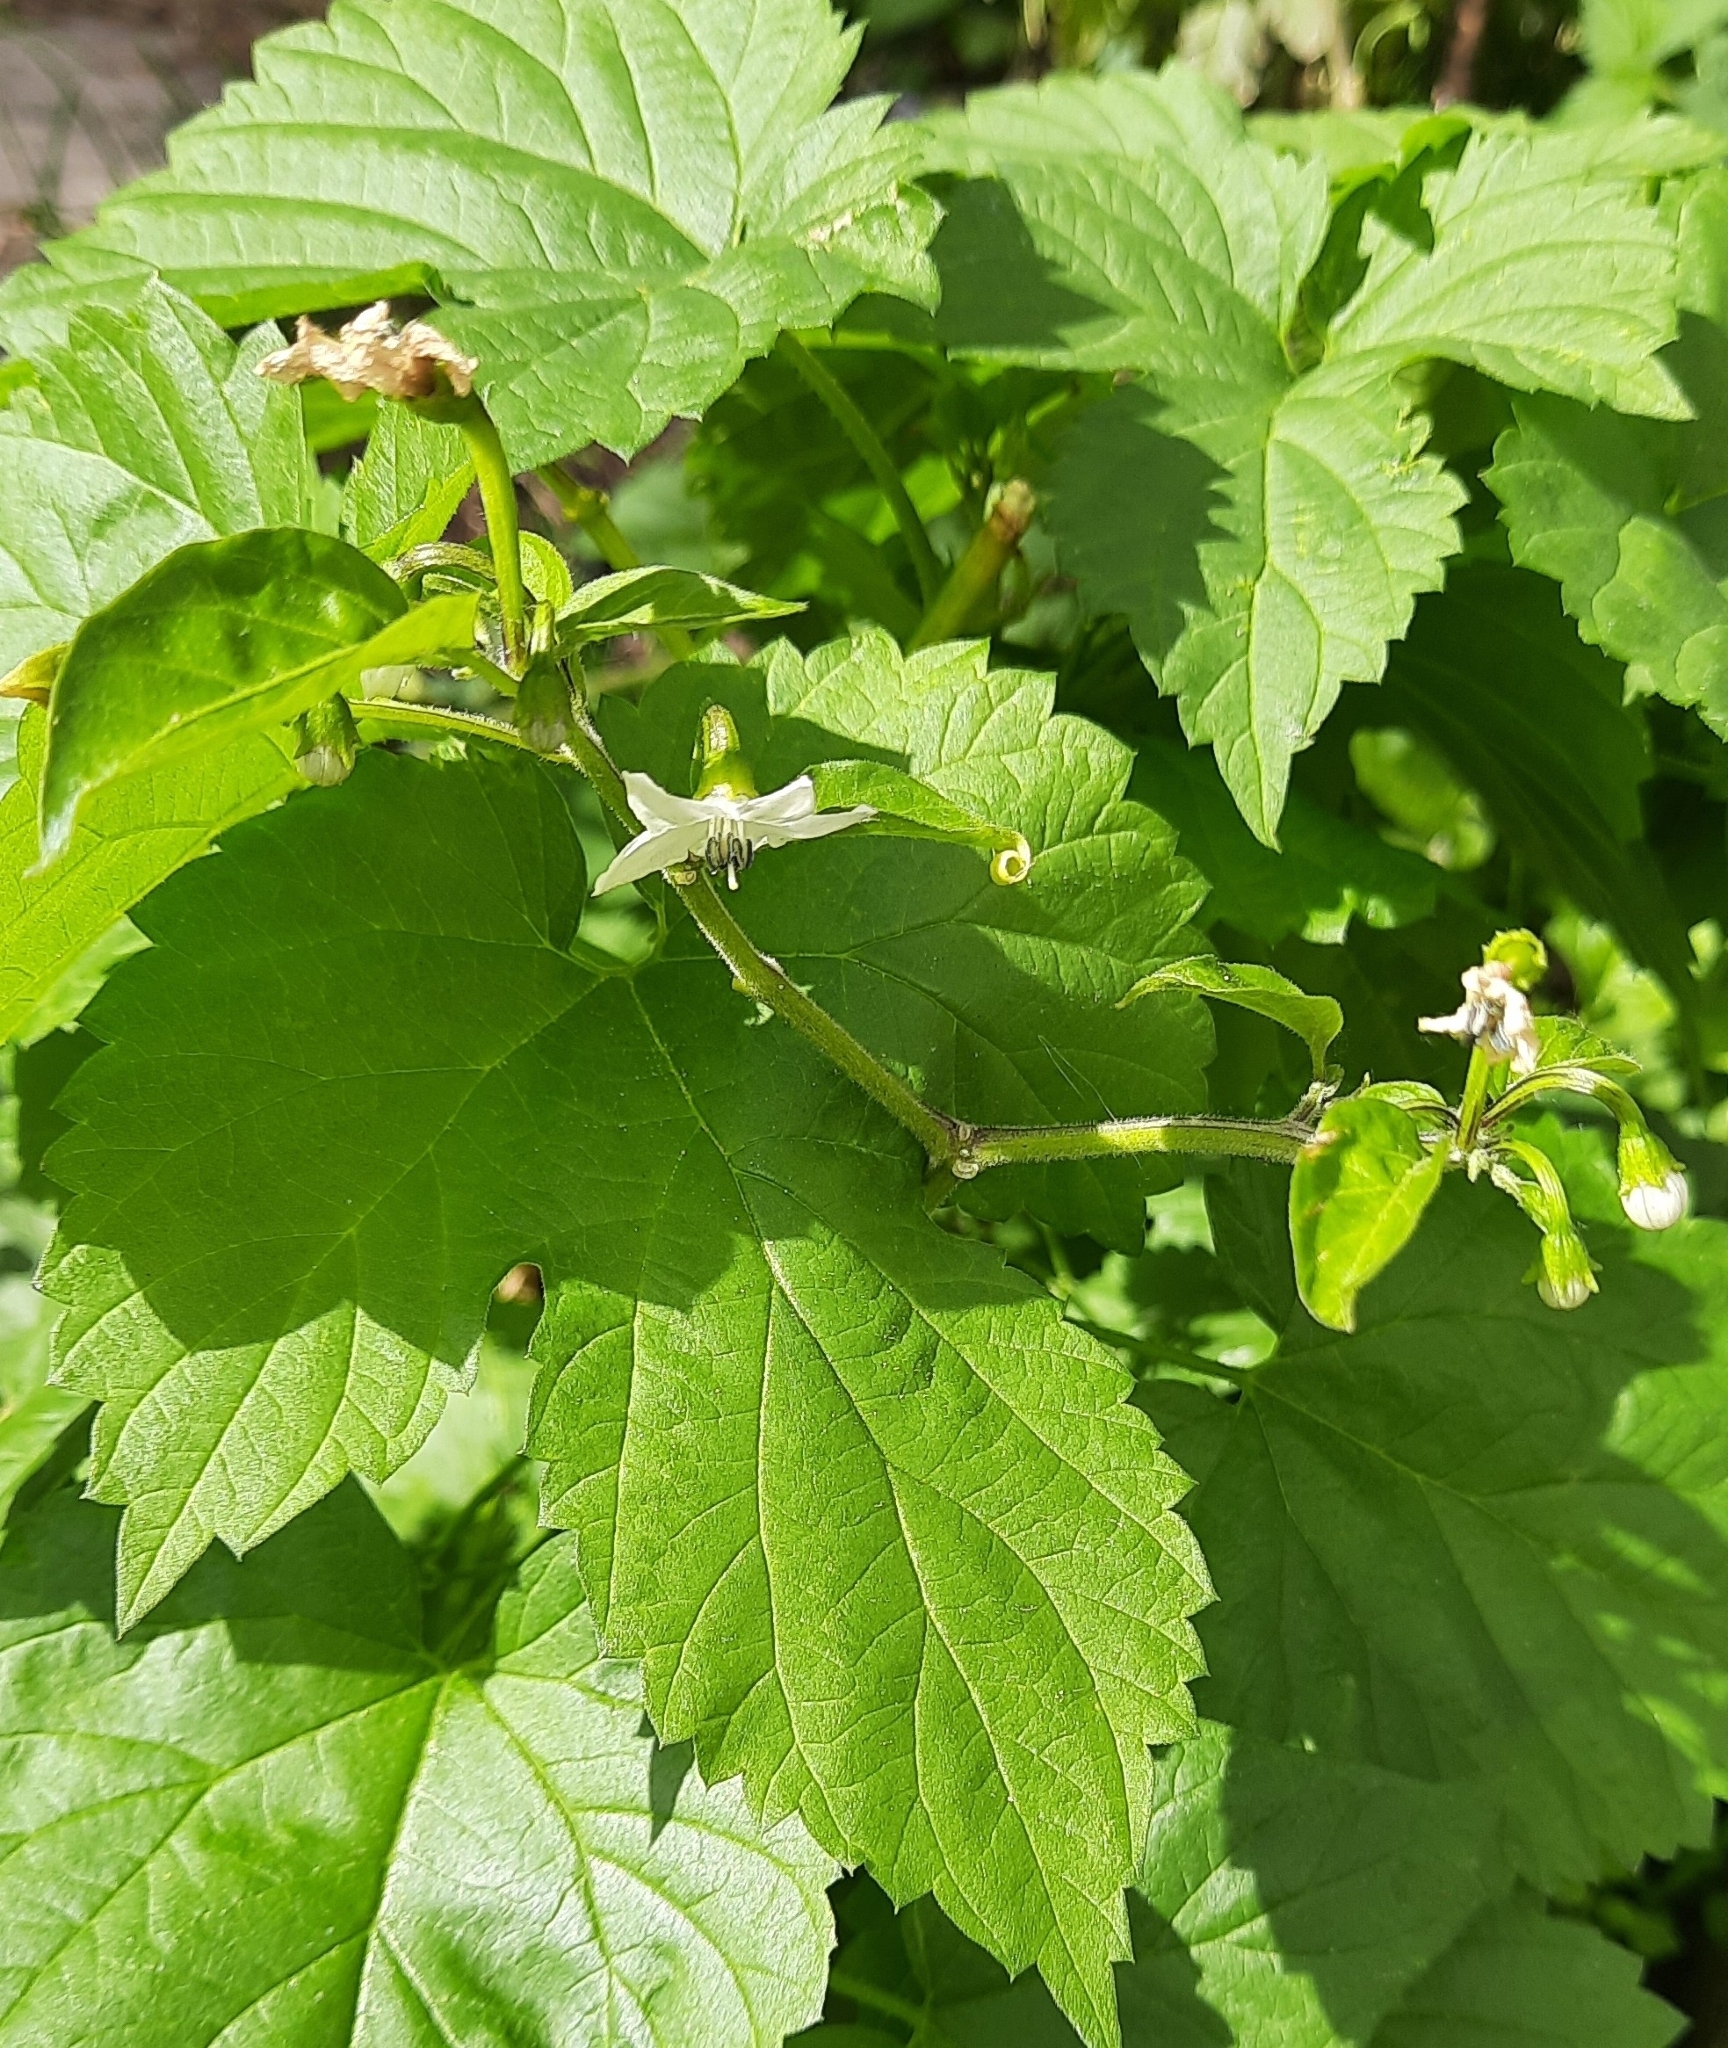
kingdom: Plantae
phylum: Tracheophyta
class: Magnoliopsida
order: Rosales
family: Cannabaceae
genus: Humulus
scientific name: Humulus lupulus
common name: Hop
